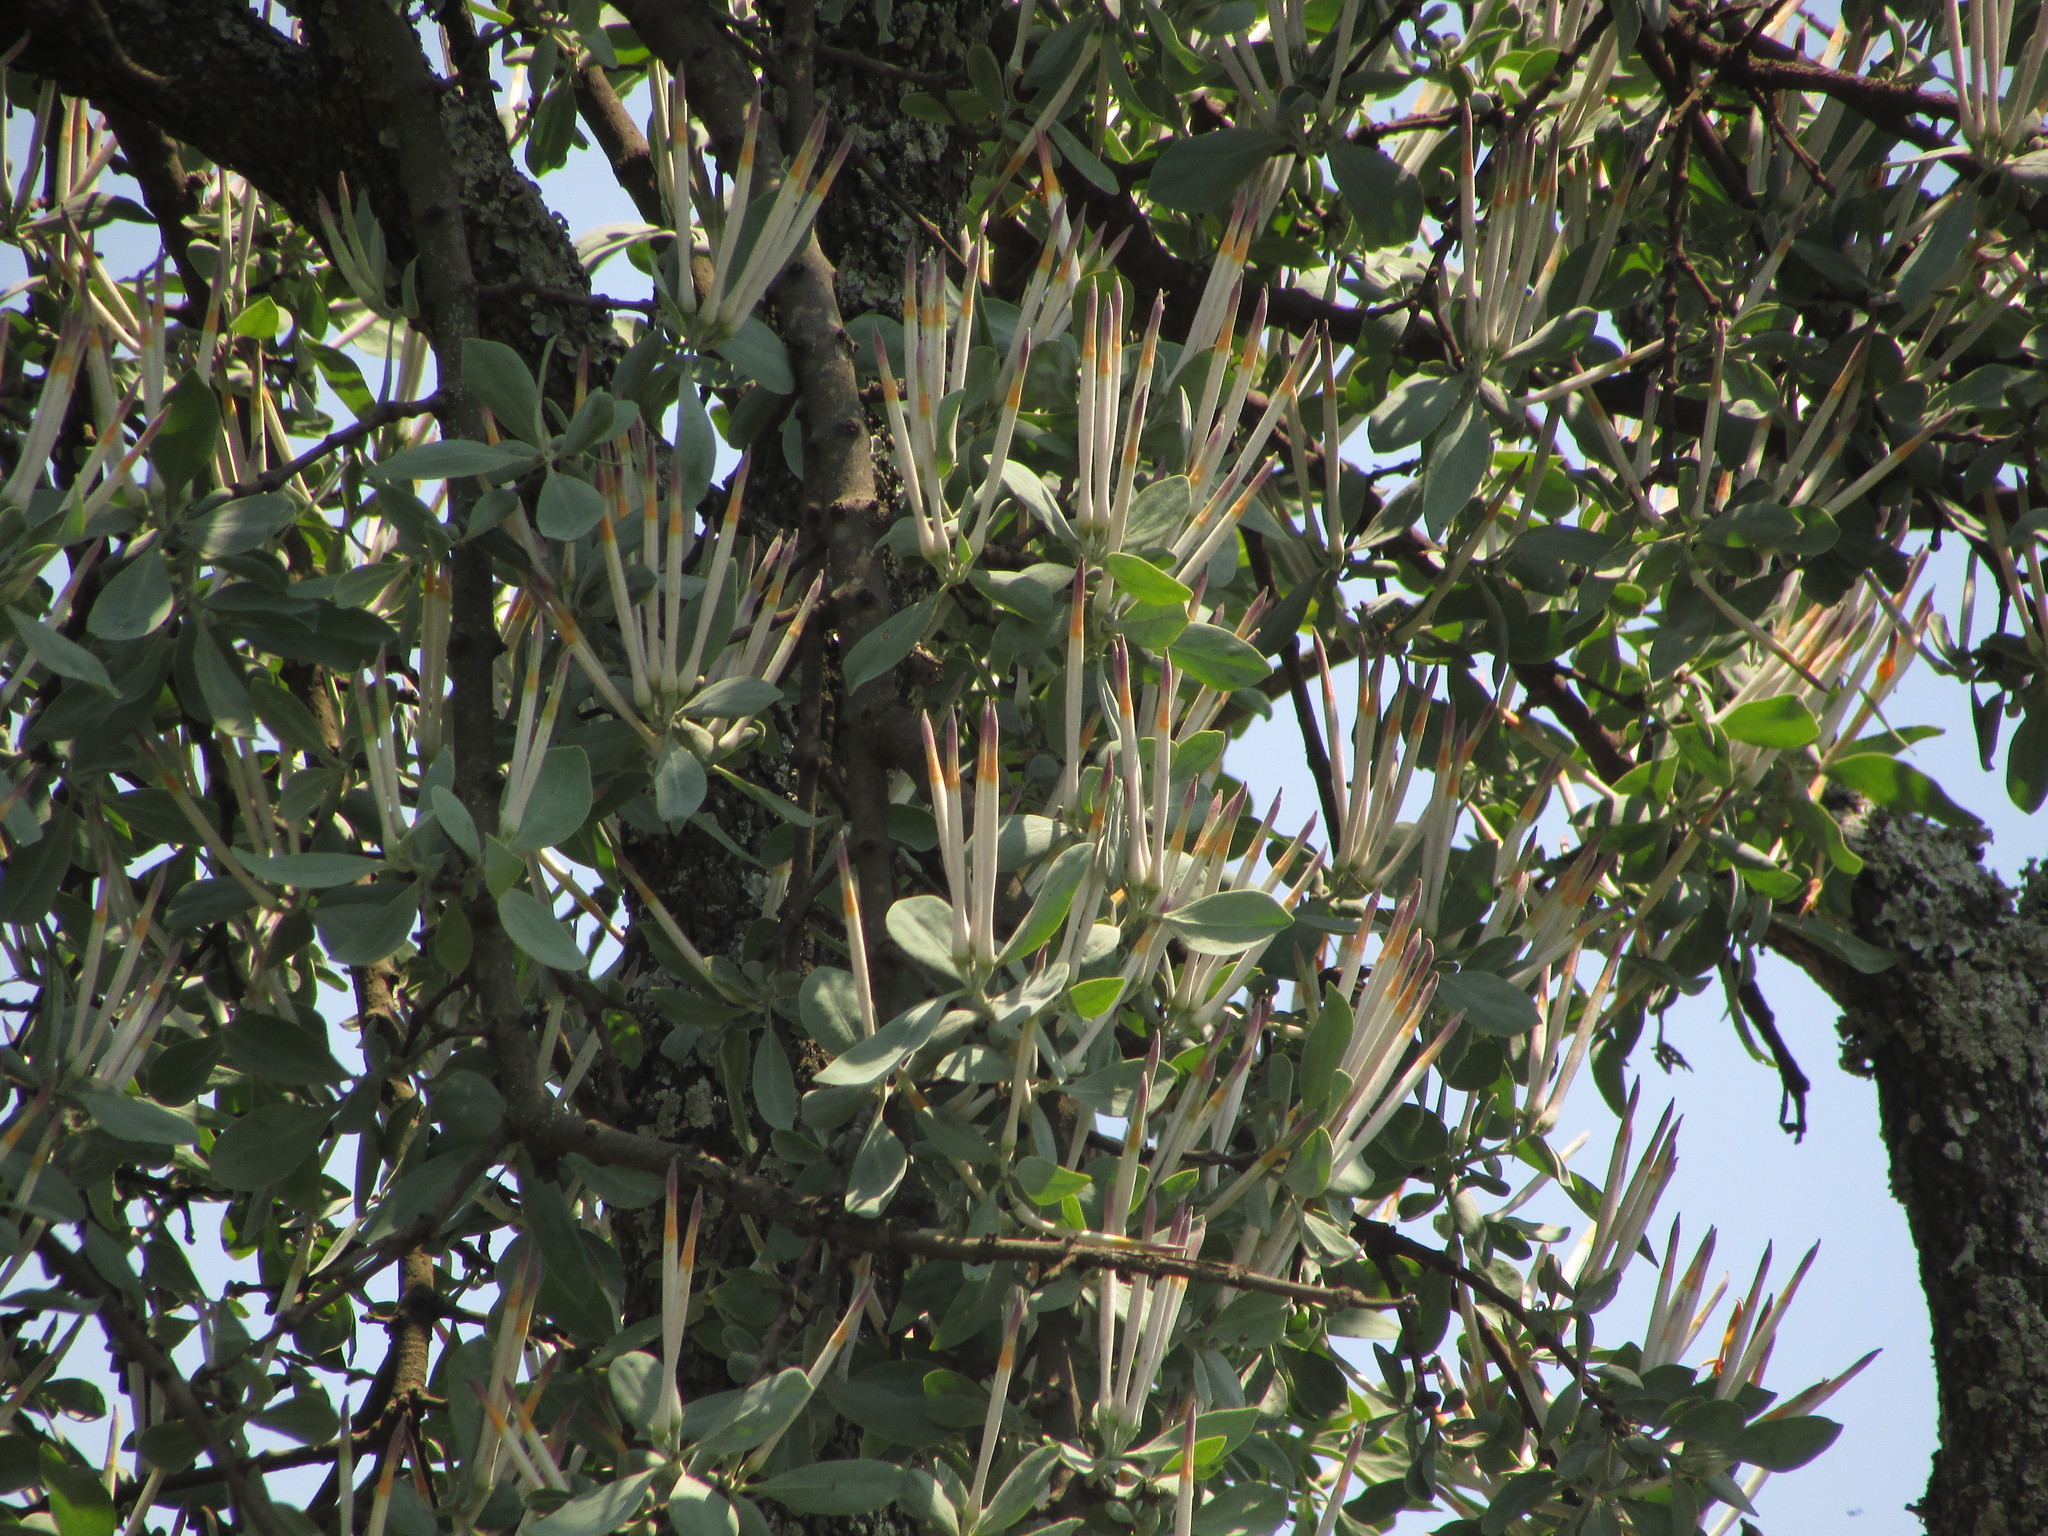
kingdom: Plantae
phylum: Tracheophyta
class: Magnoliopsida
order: Santalales
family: Loranthaceae
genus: Agelanthus
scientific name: Agelanthus natalitius
